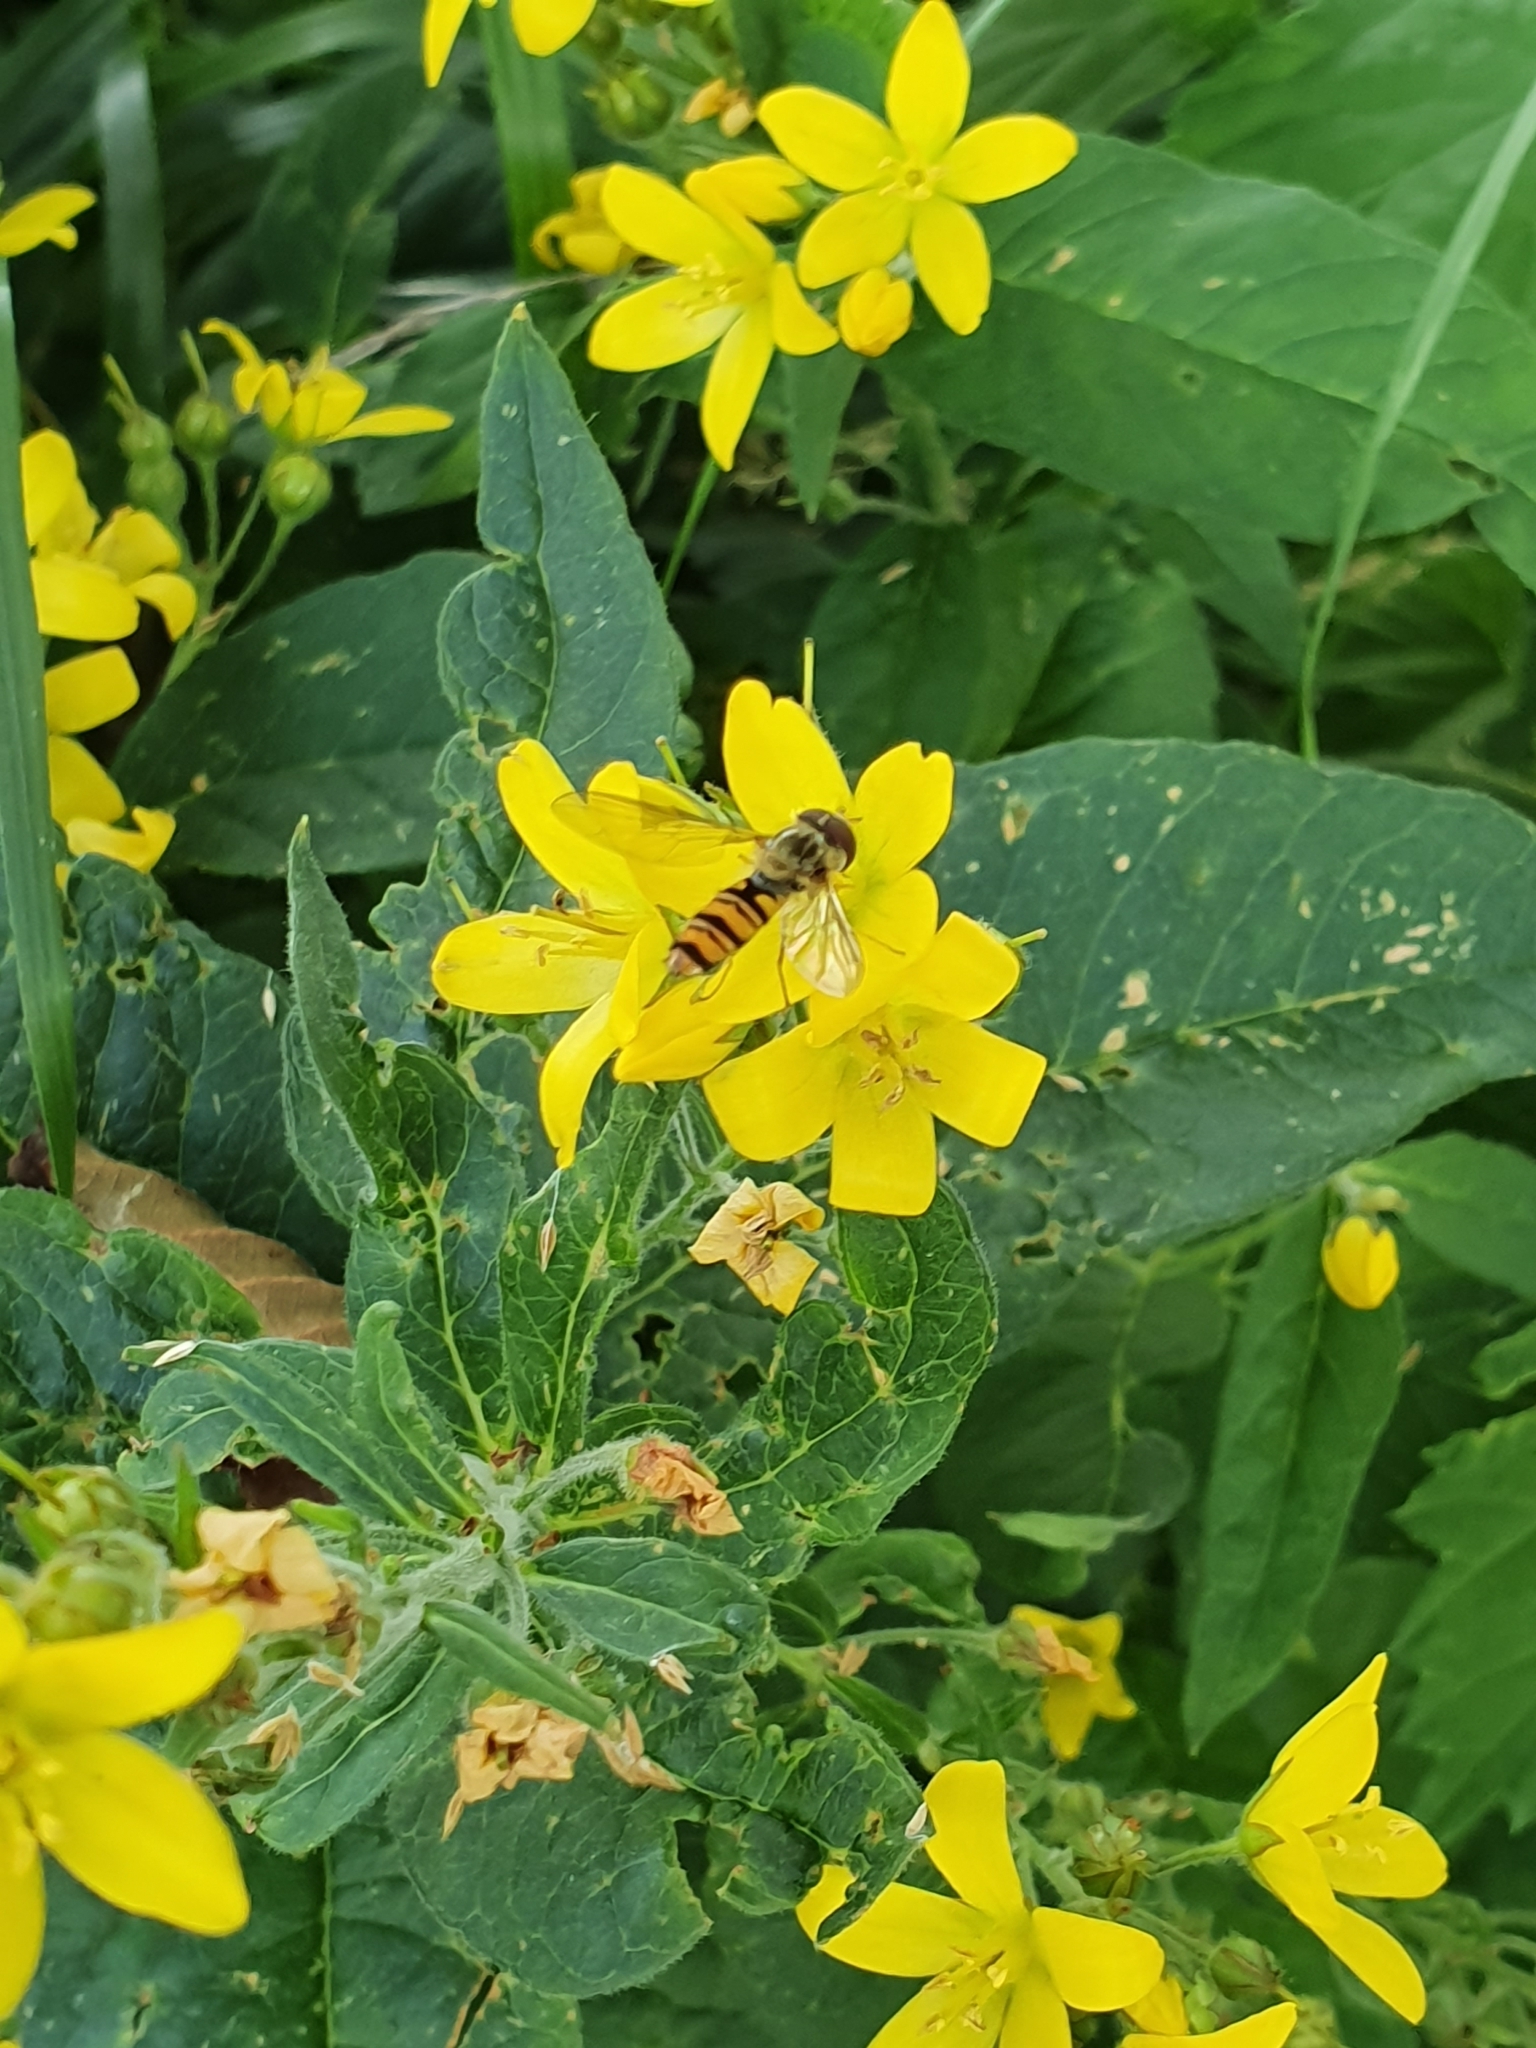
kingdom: Animalia
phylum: Arthropoda
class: Insecta
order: Diptera
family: Syrphidae
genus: Episyrphus
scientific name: Episyrphus balteatus
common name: Marmalade hoverfly
